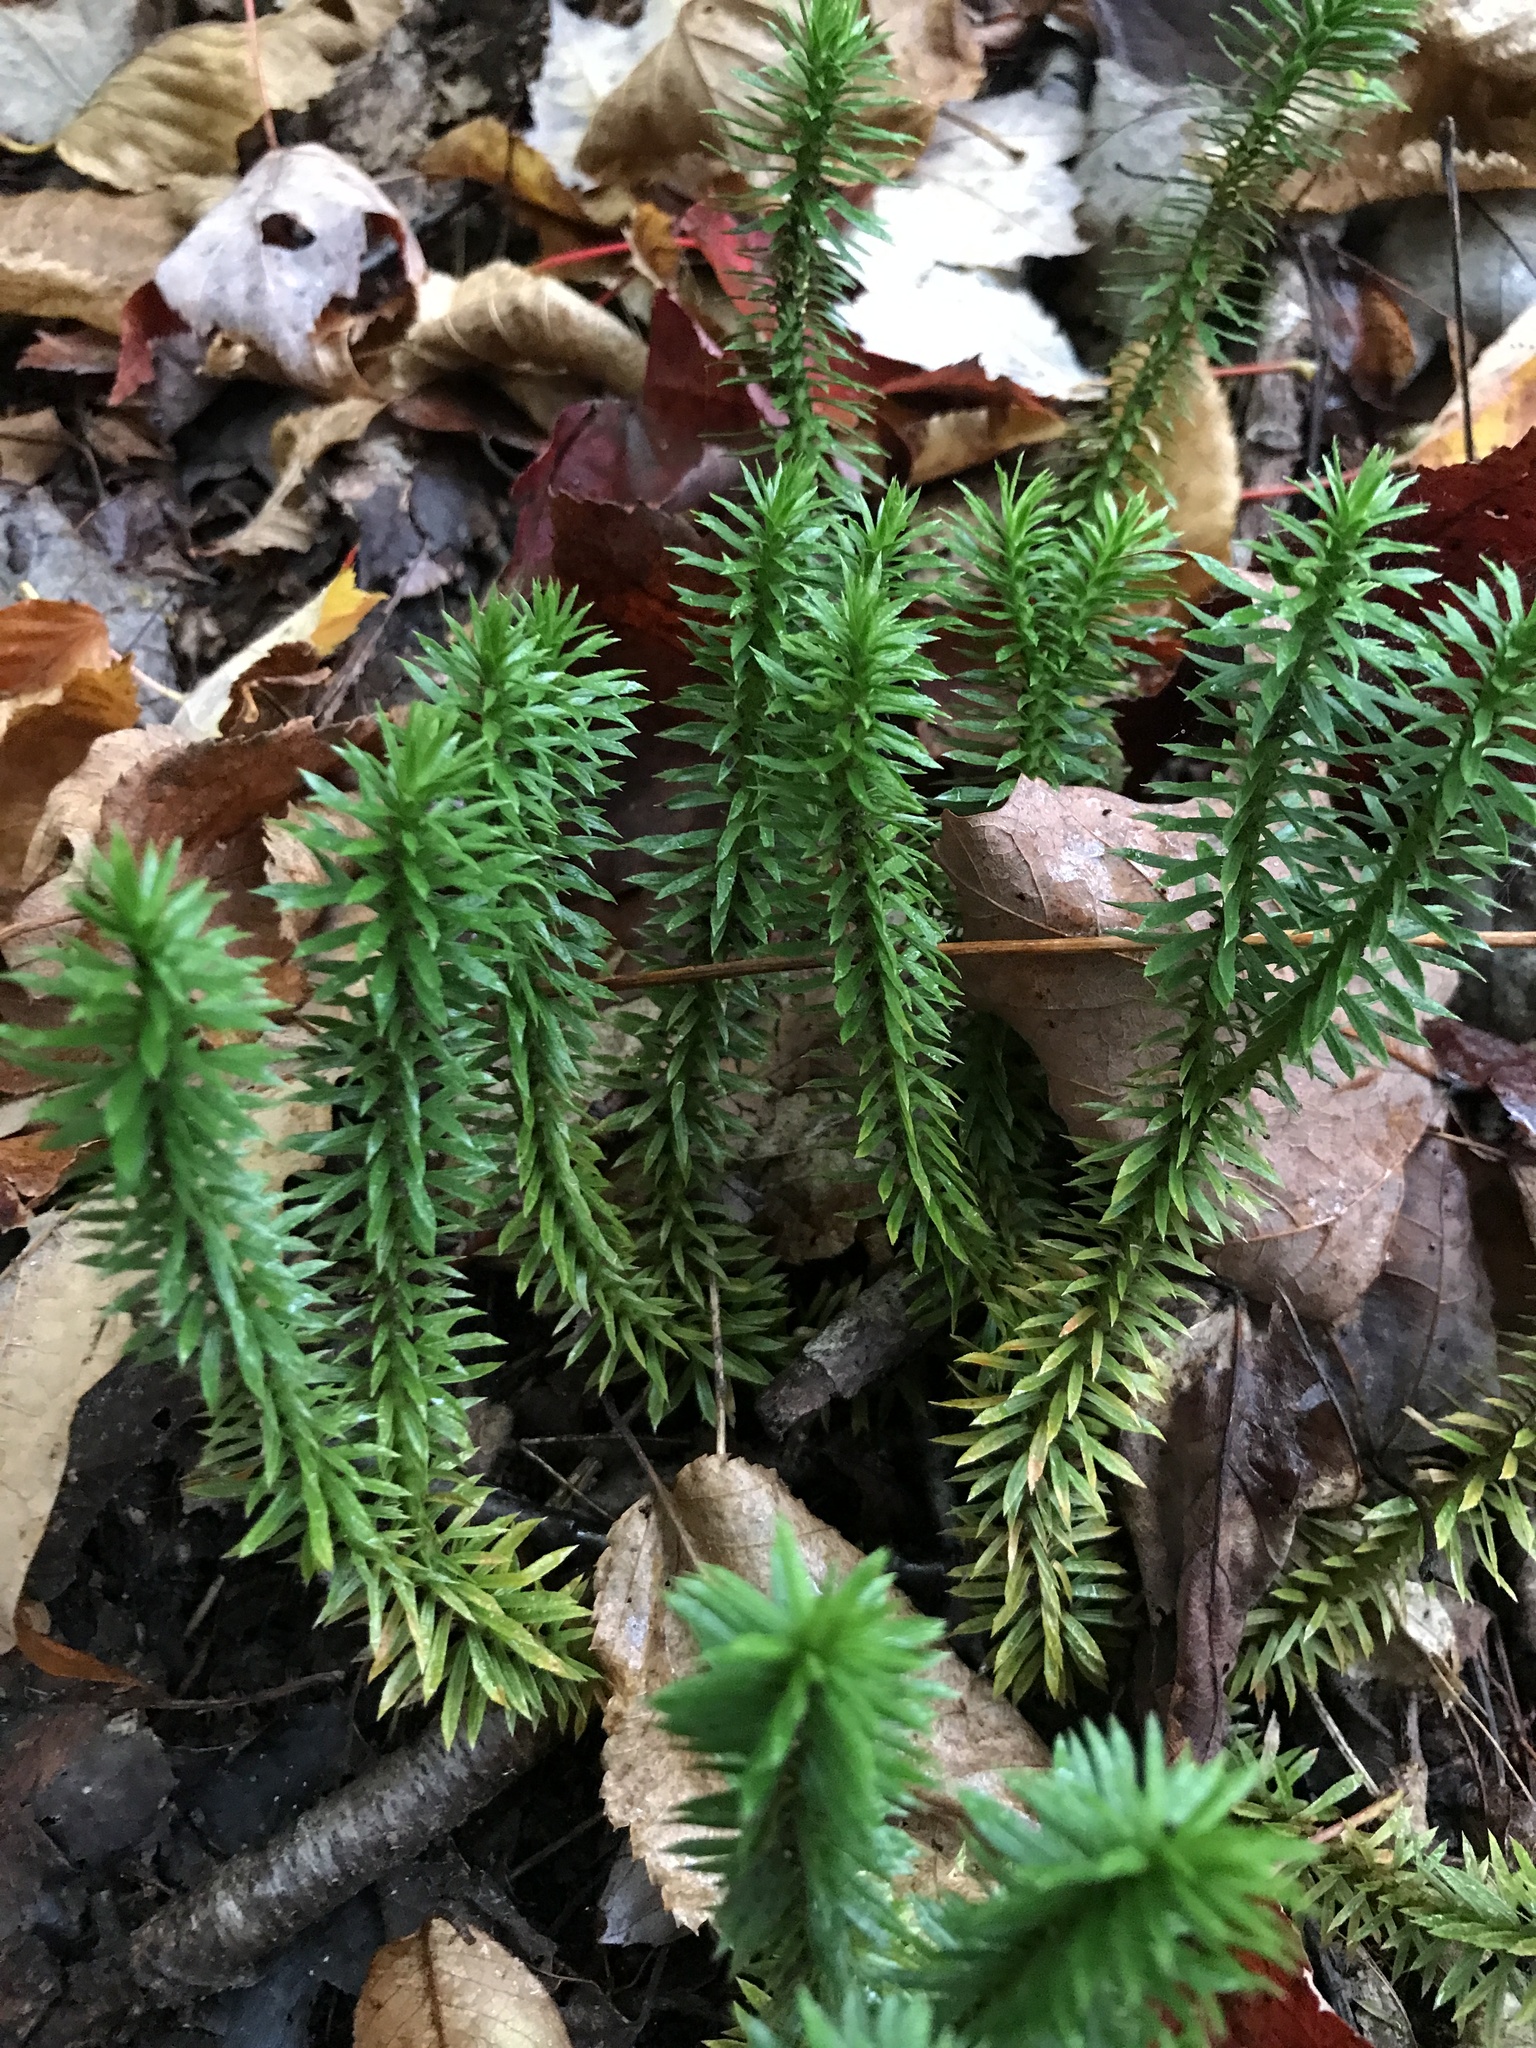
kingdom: Plantae
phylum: Tracheophyta
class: Lycopodiopsida
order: Lycopodiales
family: Lycopodiaceae
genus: Huperzia
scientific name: Huperzia lucidula
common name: Shining clubmoss
